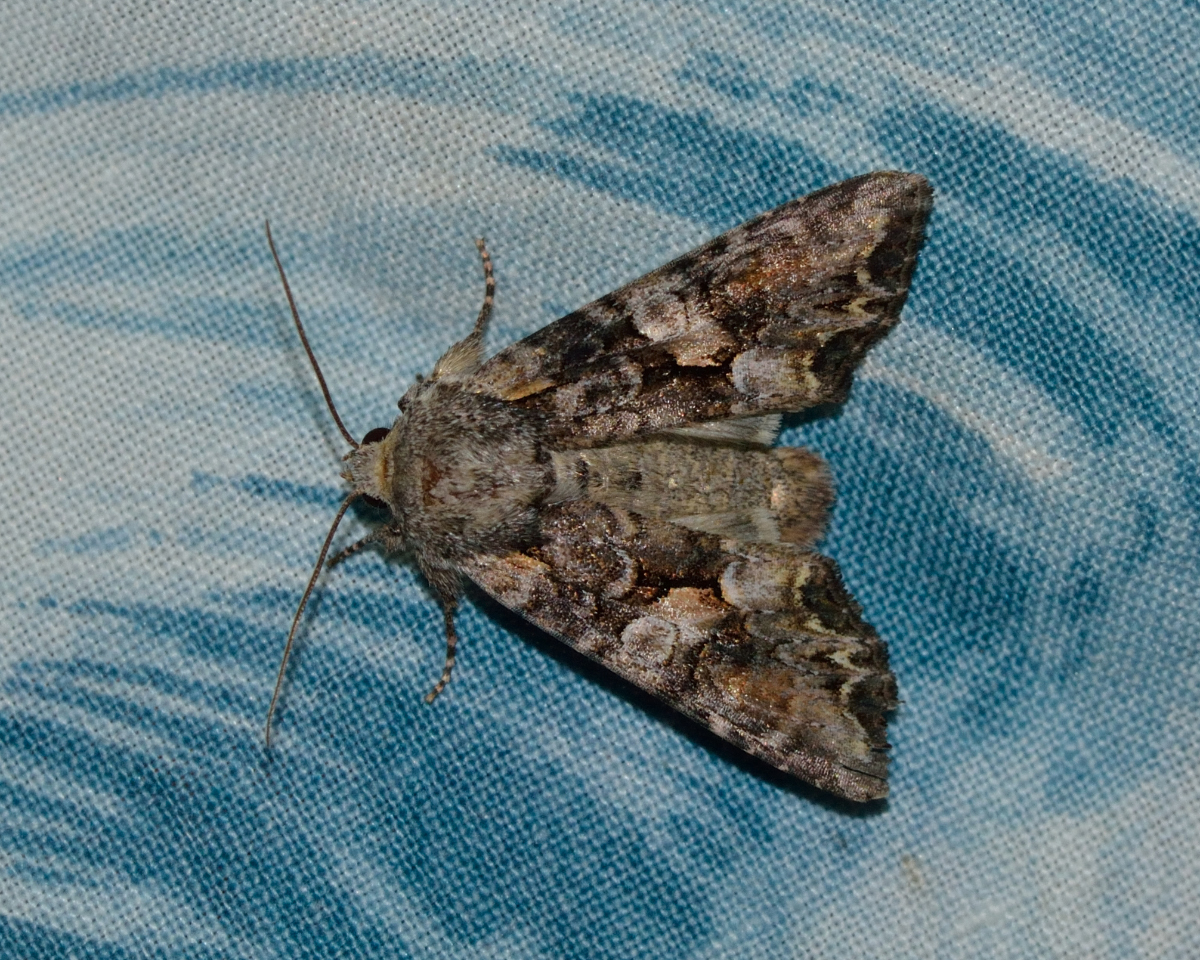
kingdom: Animalia
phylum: Arthropoda
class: Insecta
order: Lepidoptera
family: Noctuidae
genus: Lacanobia
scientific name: Lacanobia contigua
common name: Beautiful brocade
